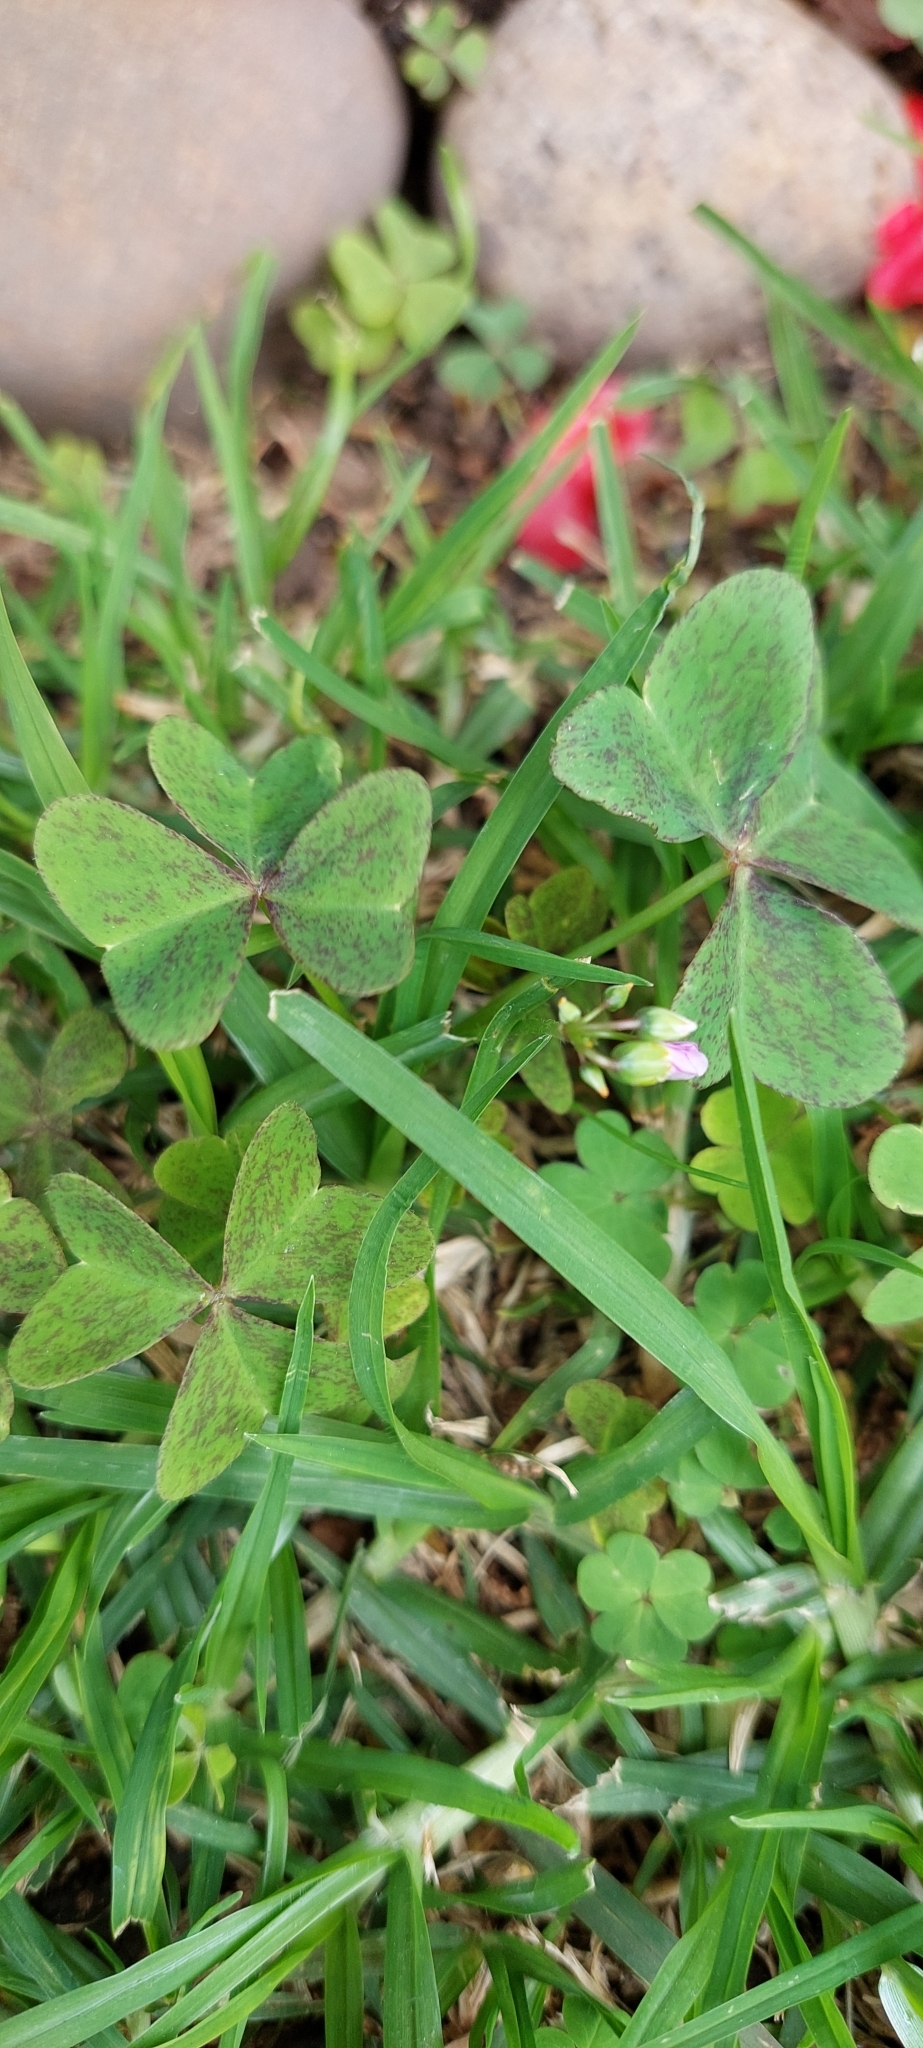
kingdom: Plantae
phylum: Tracheophyta
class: Magnoliopsida
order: Oxalidales
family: Oxalidaceae
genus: Oxalis
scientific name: Oxalis latifolia
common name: Garden pink-sorrel
